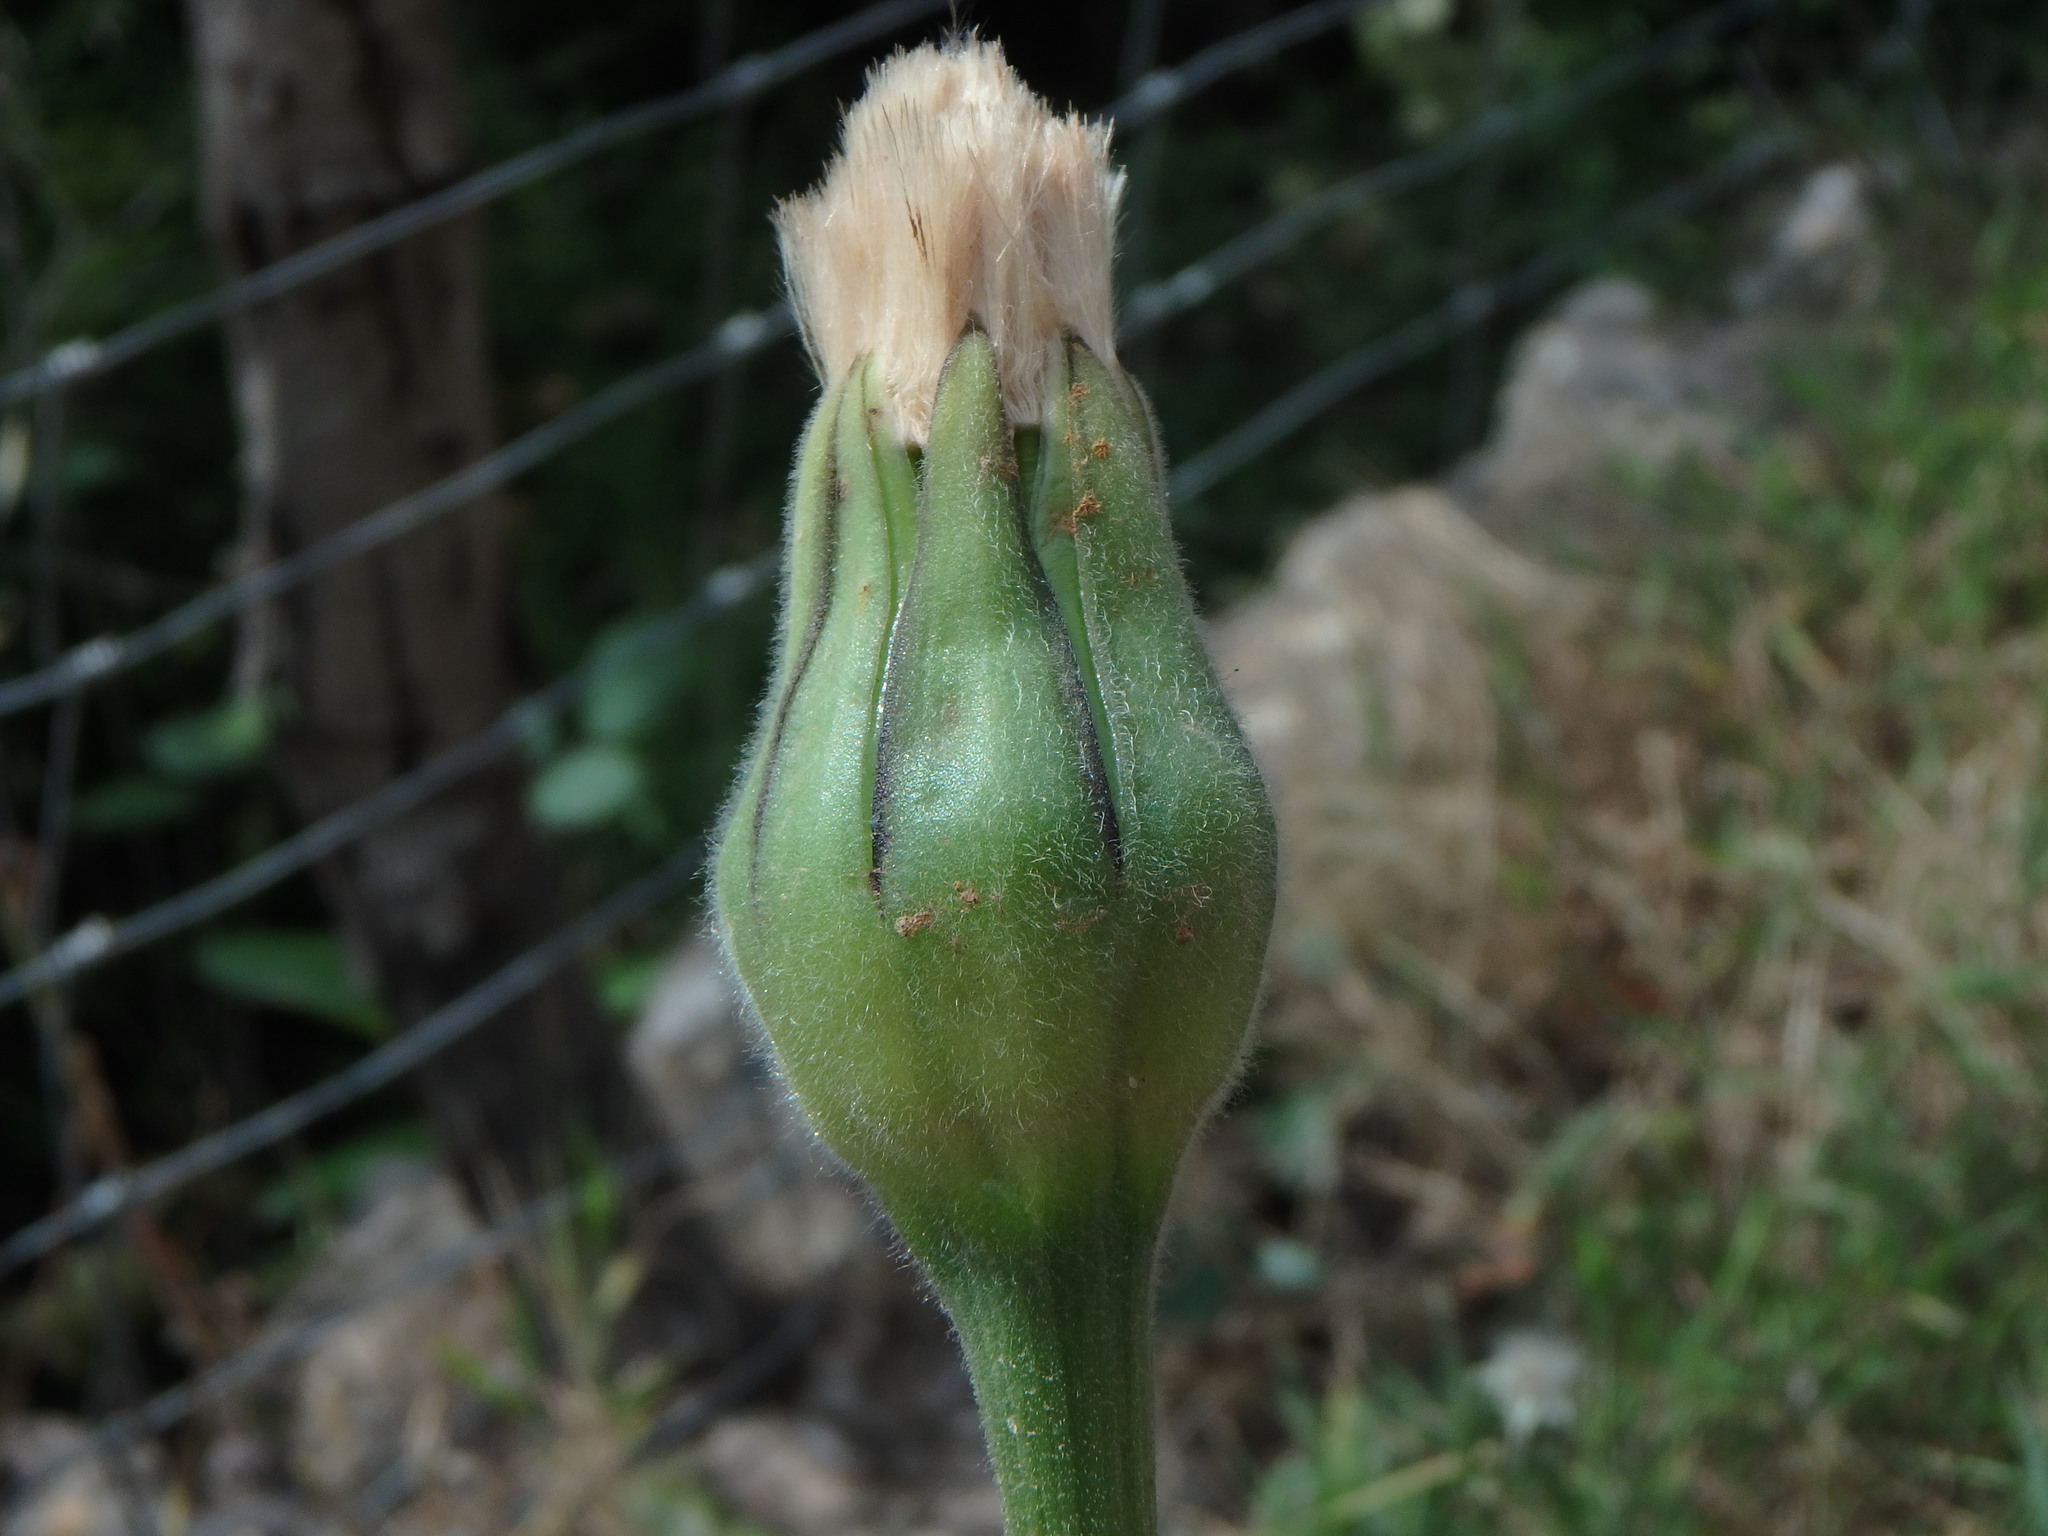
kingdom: Plantae
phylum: Tracheophyta
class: Magnoliopsida
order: Asterales
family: Asteraceae
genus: Urospermum
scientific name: Urospermum dalechampii
